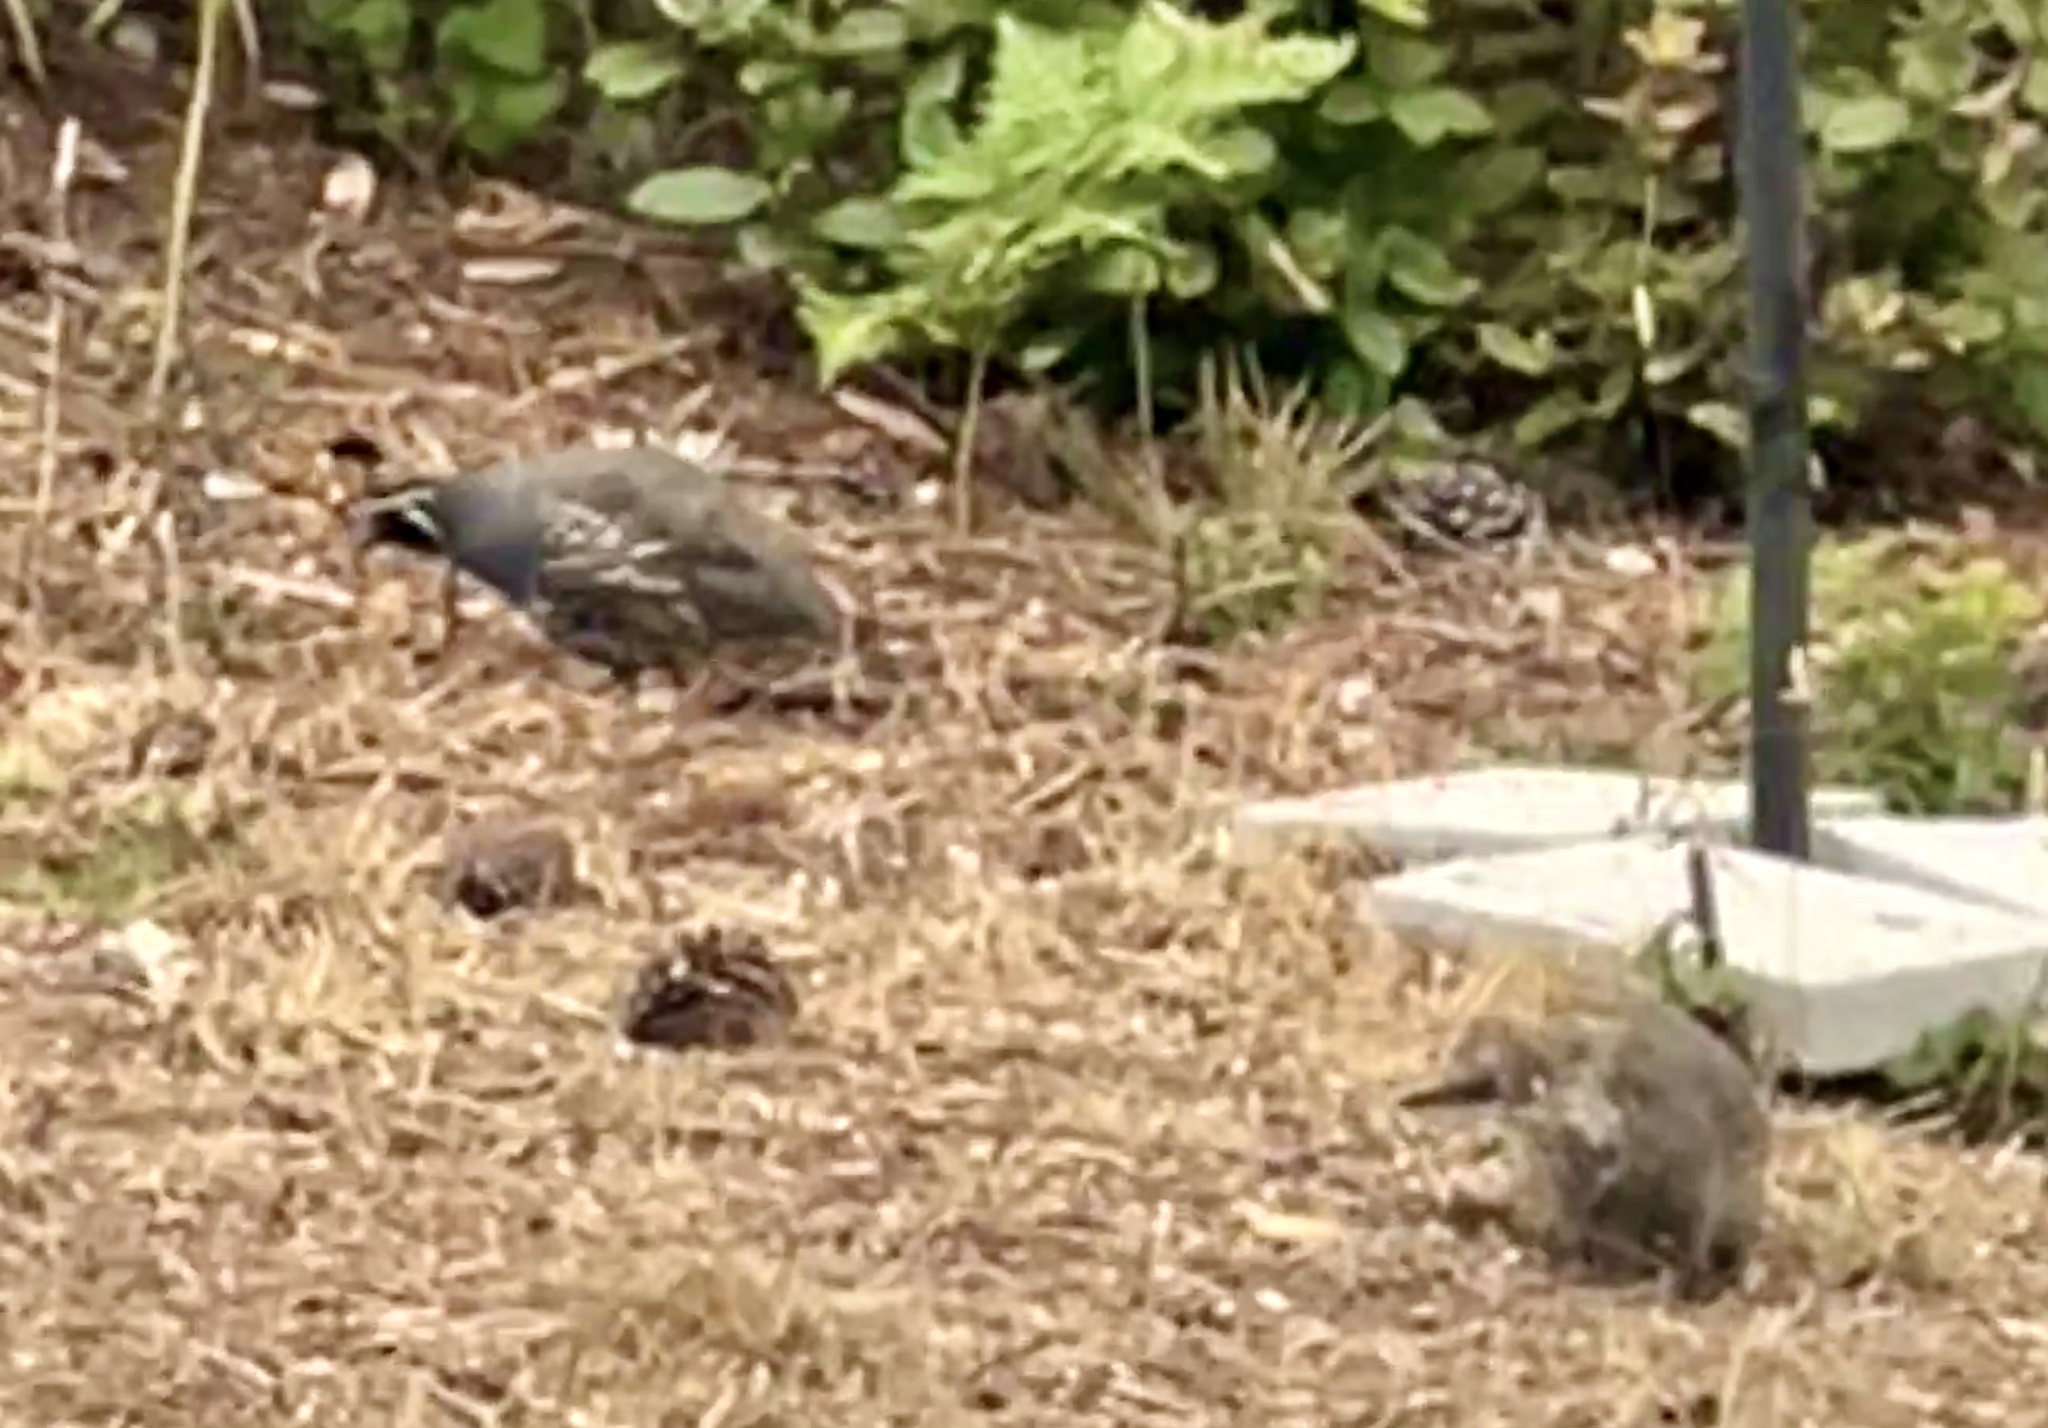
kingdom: Animalia
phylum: Chordata
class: Aves
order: Galliformes
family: Odontophoridae
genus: Callipepla
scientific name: Callipepla californica
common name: California quail
